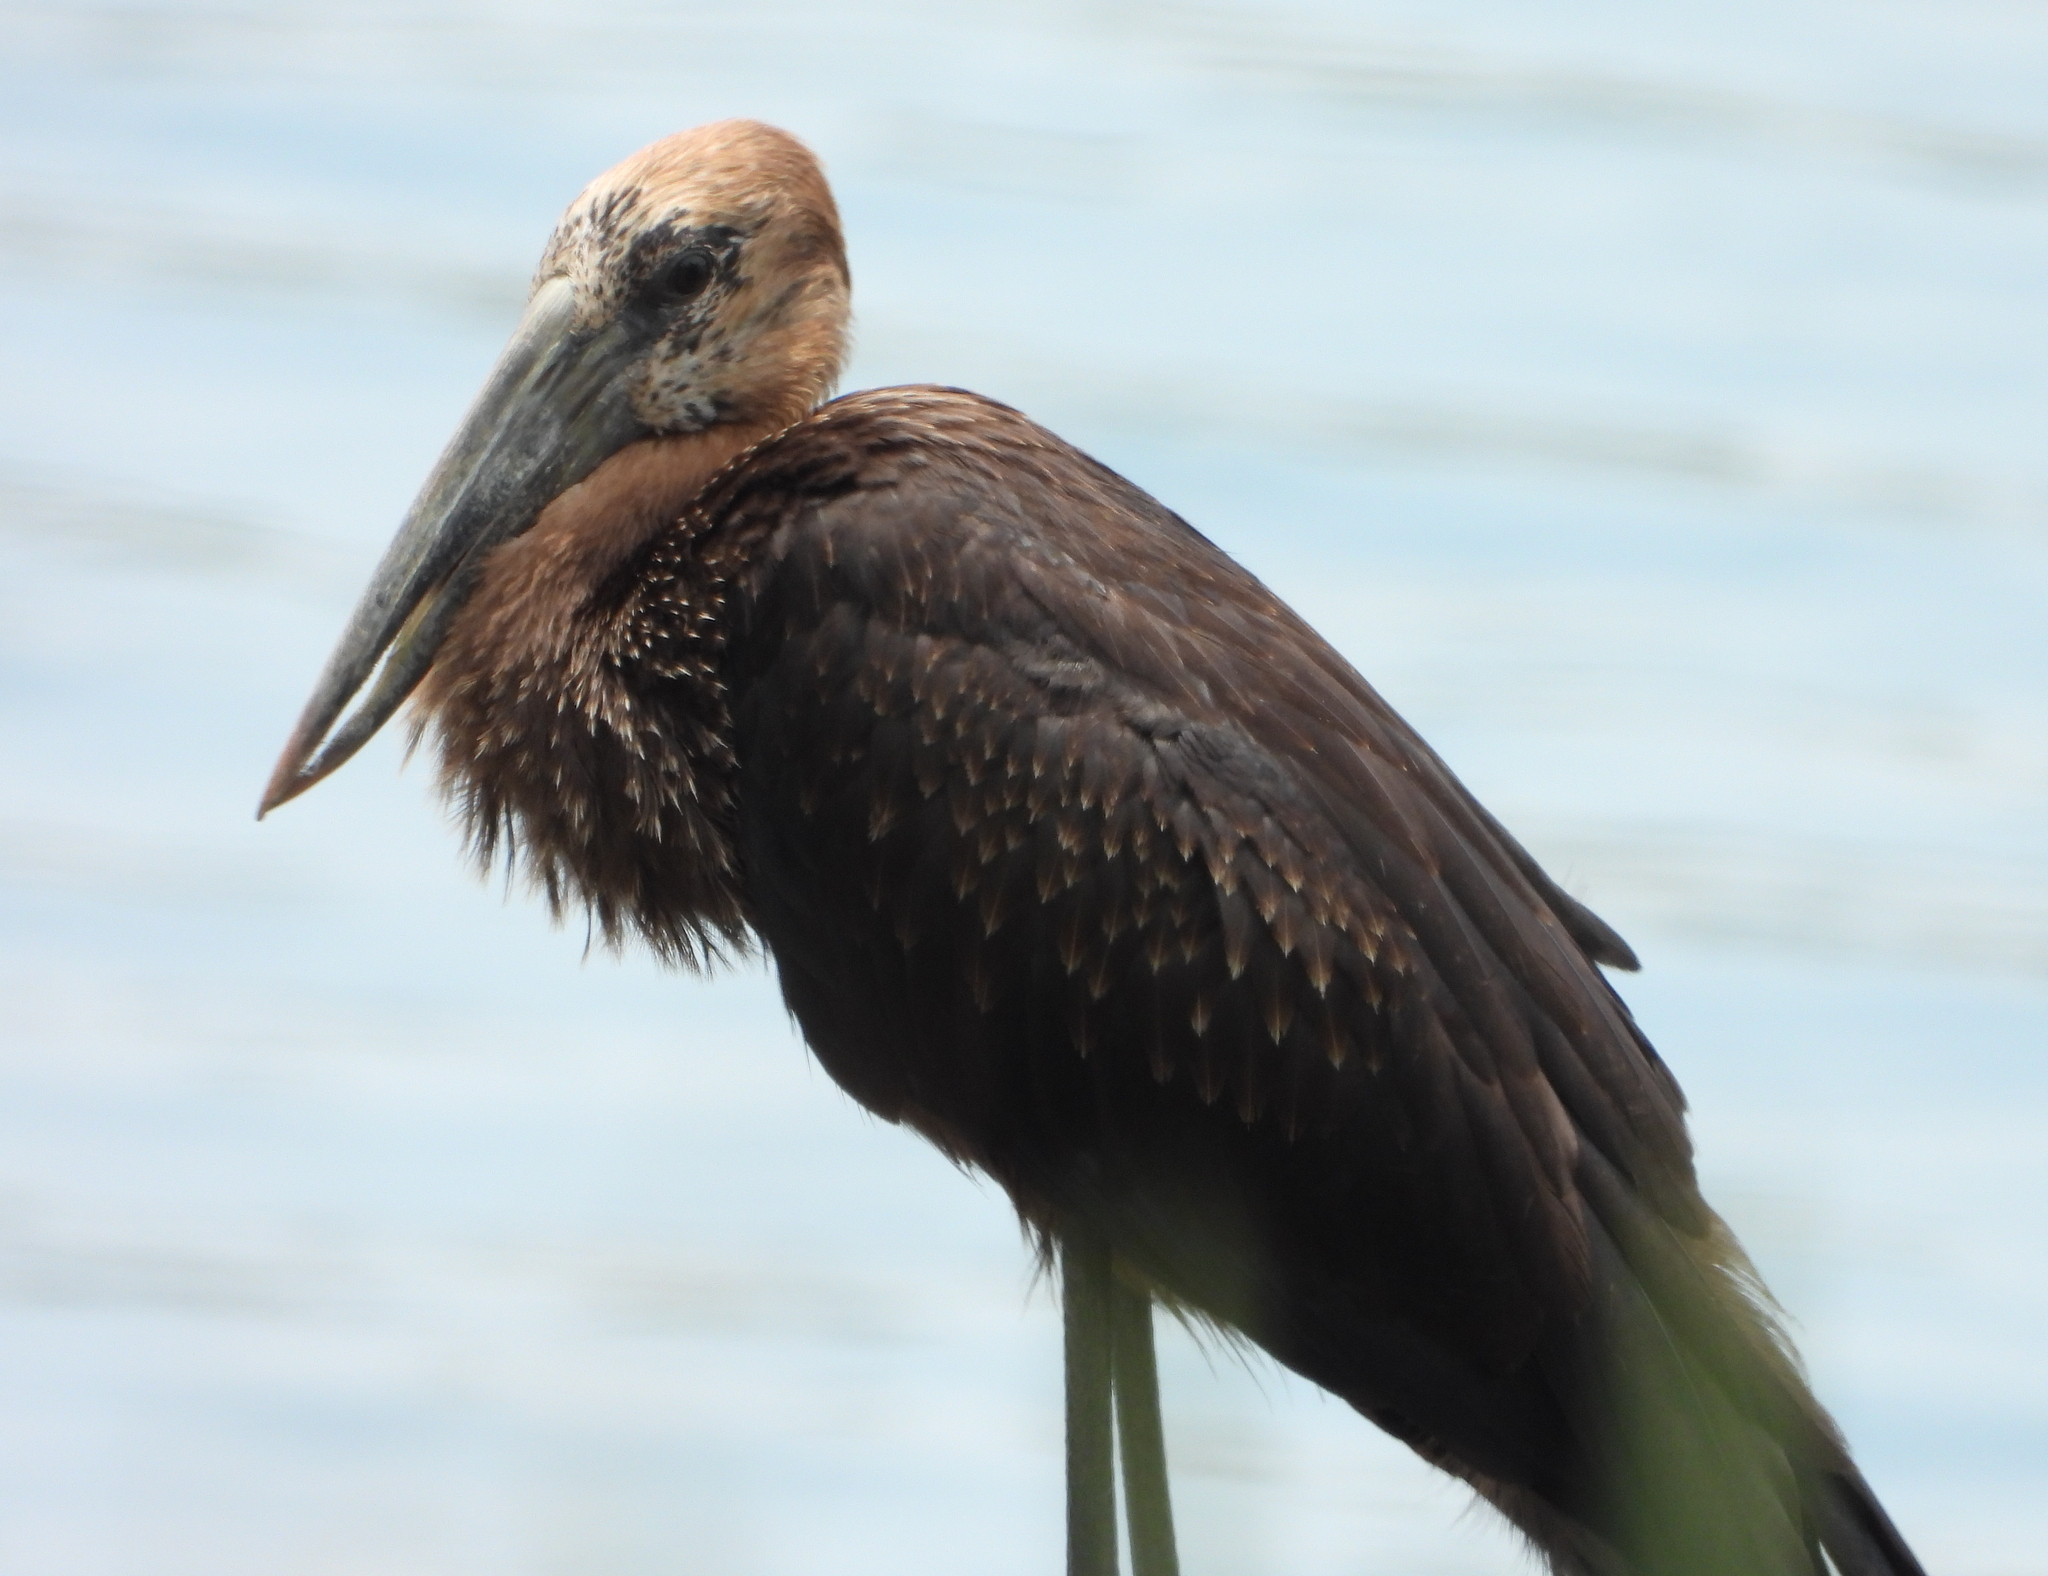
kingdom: Animalia
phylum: Chordata
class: Aves
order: Ciconiiformes
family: Ciconiidae
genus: Anastomus
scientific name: Anastomus lamelligerus
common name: African openbill
